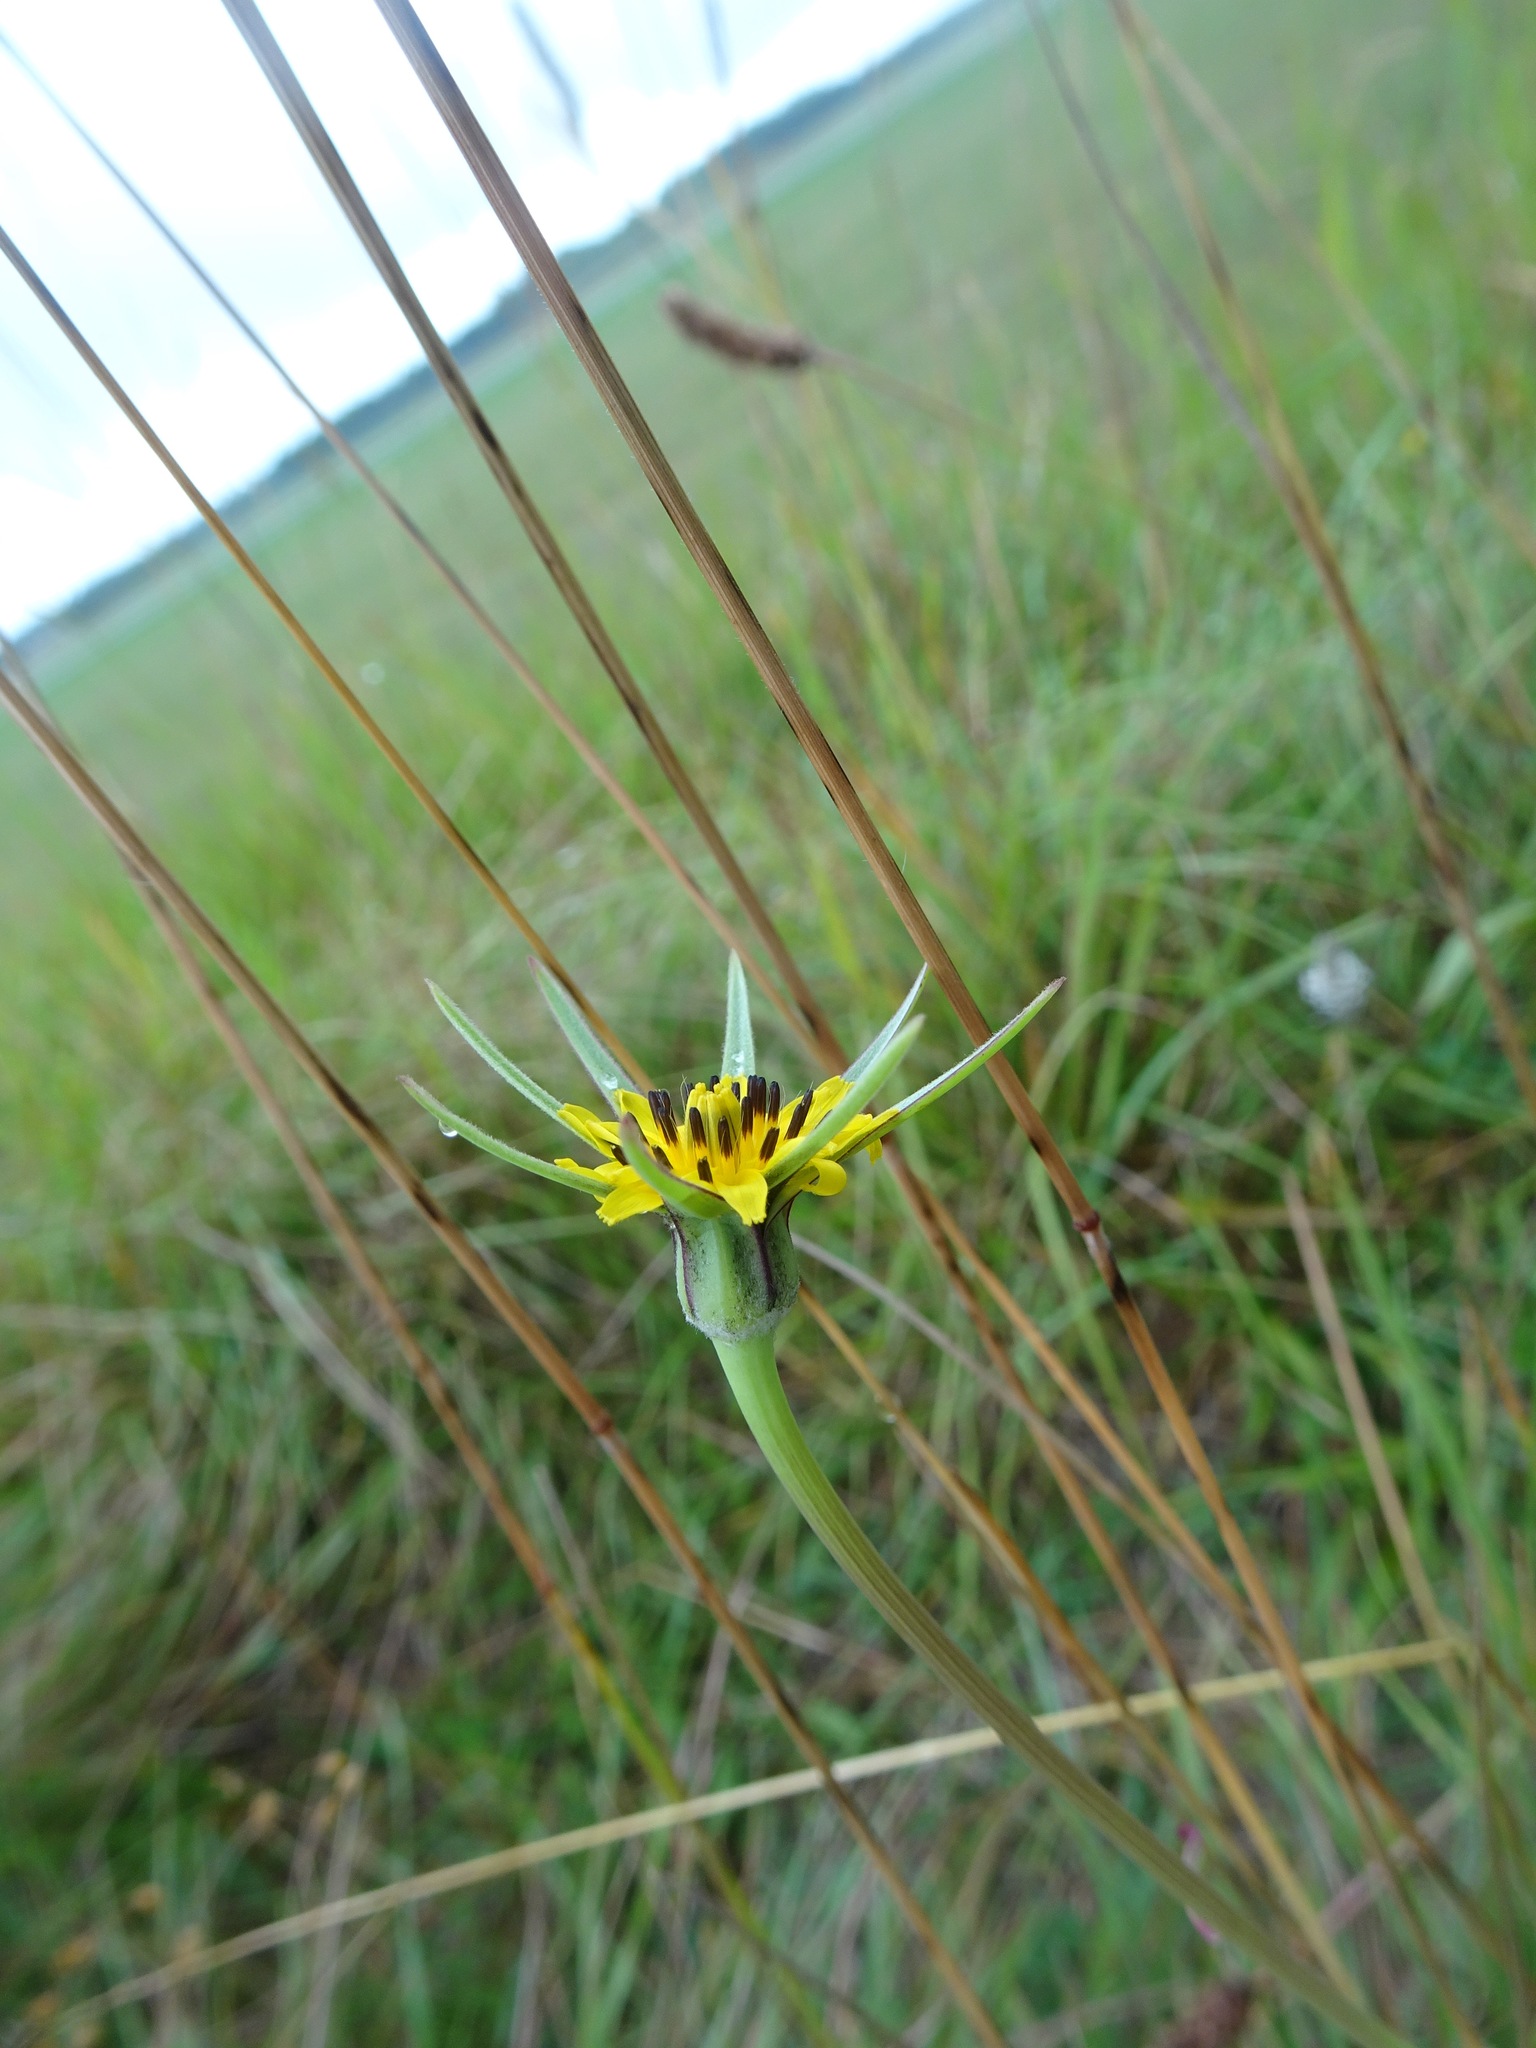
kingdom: Plantae
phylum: Tracheophyta
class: Magnoliopsida
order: Asterales
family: Asteraceae
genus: Tragopogon
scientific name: Tragopogon pratensis
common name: Goat's-beard
